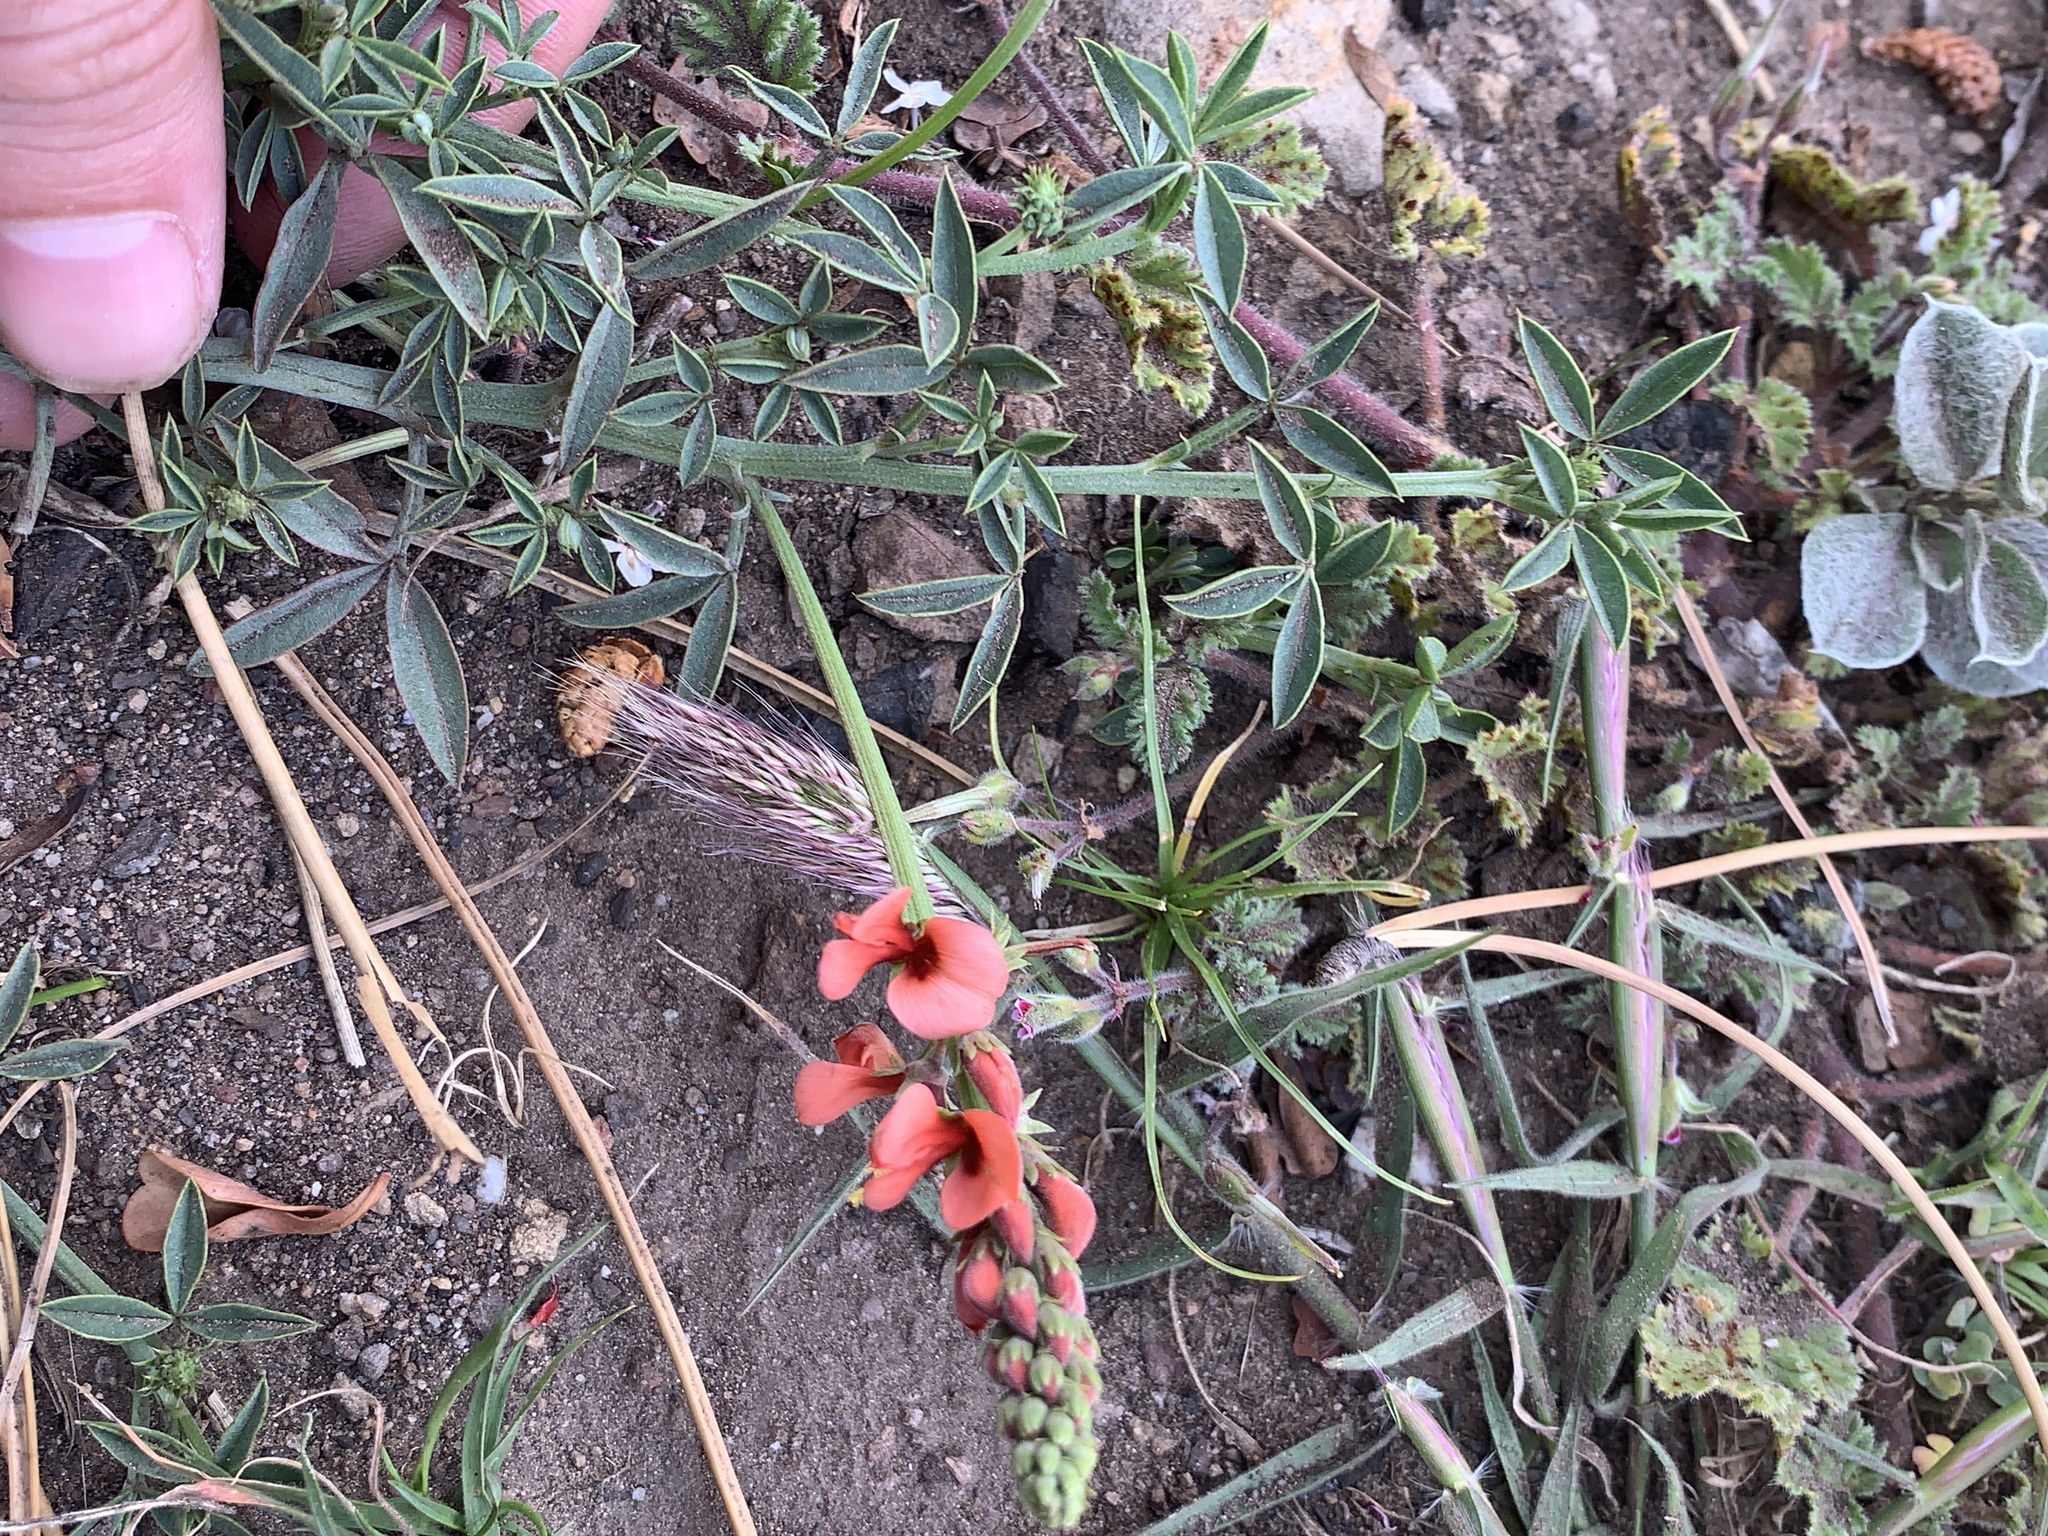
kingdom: Plantae
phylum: Tracheophyta
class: Magnoliopsida
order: Fabales
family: Fabaceae
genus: Indigofera
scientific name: Indigofera complanata
